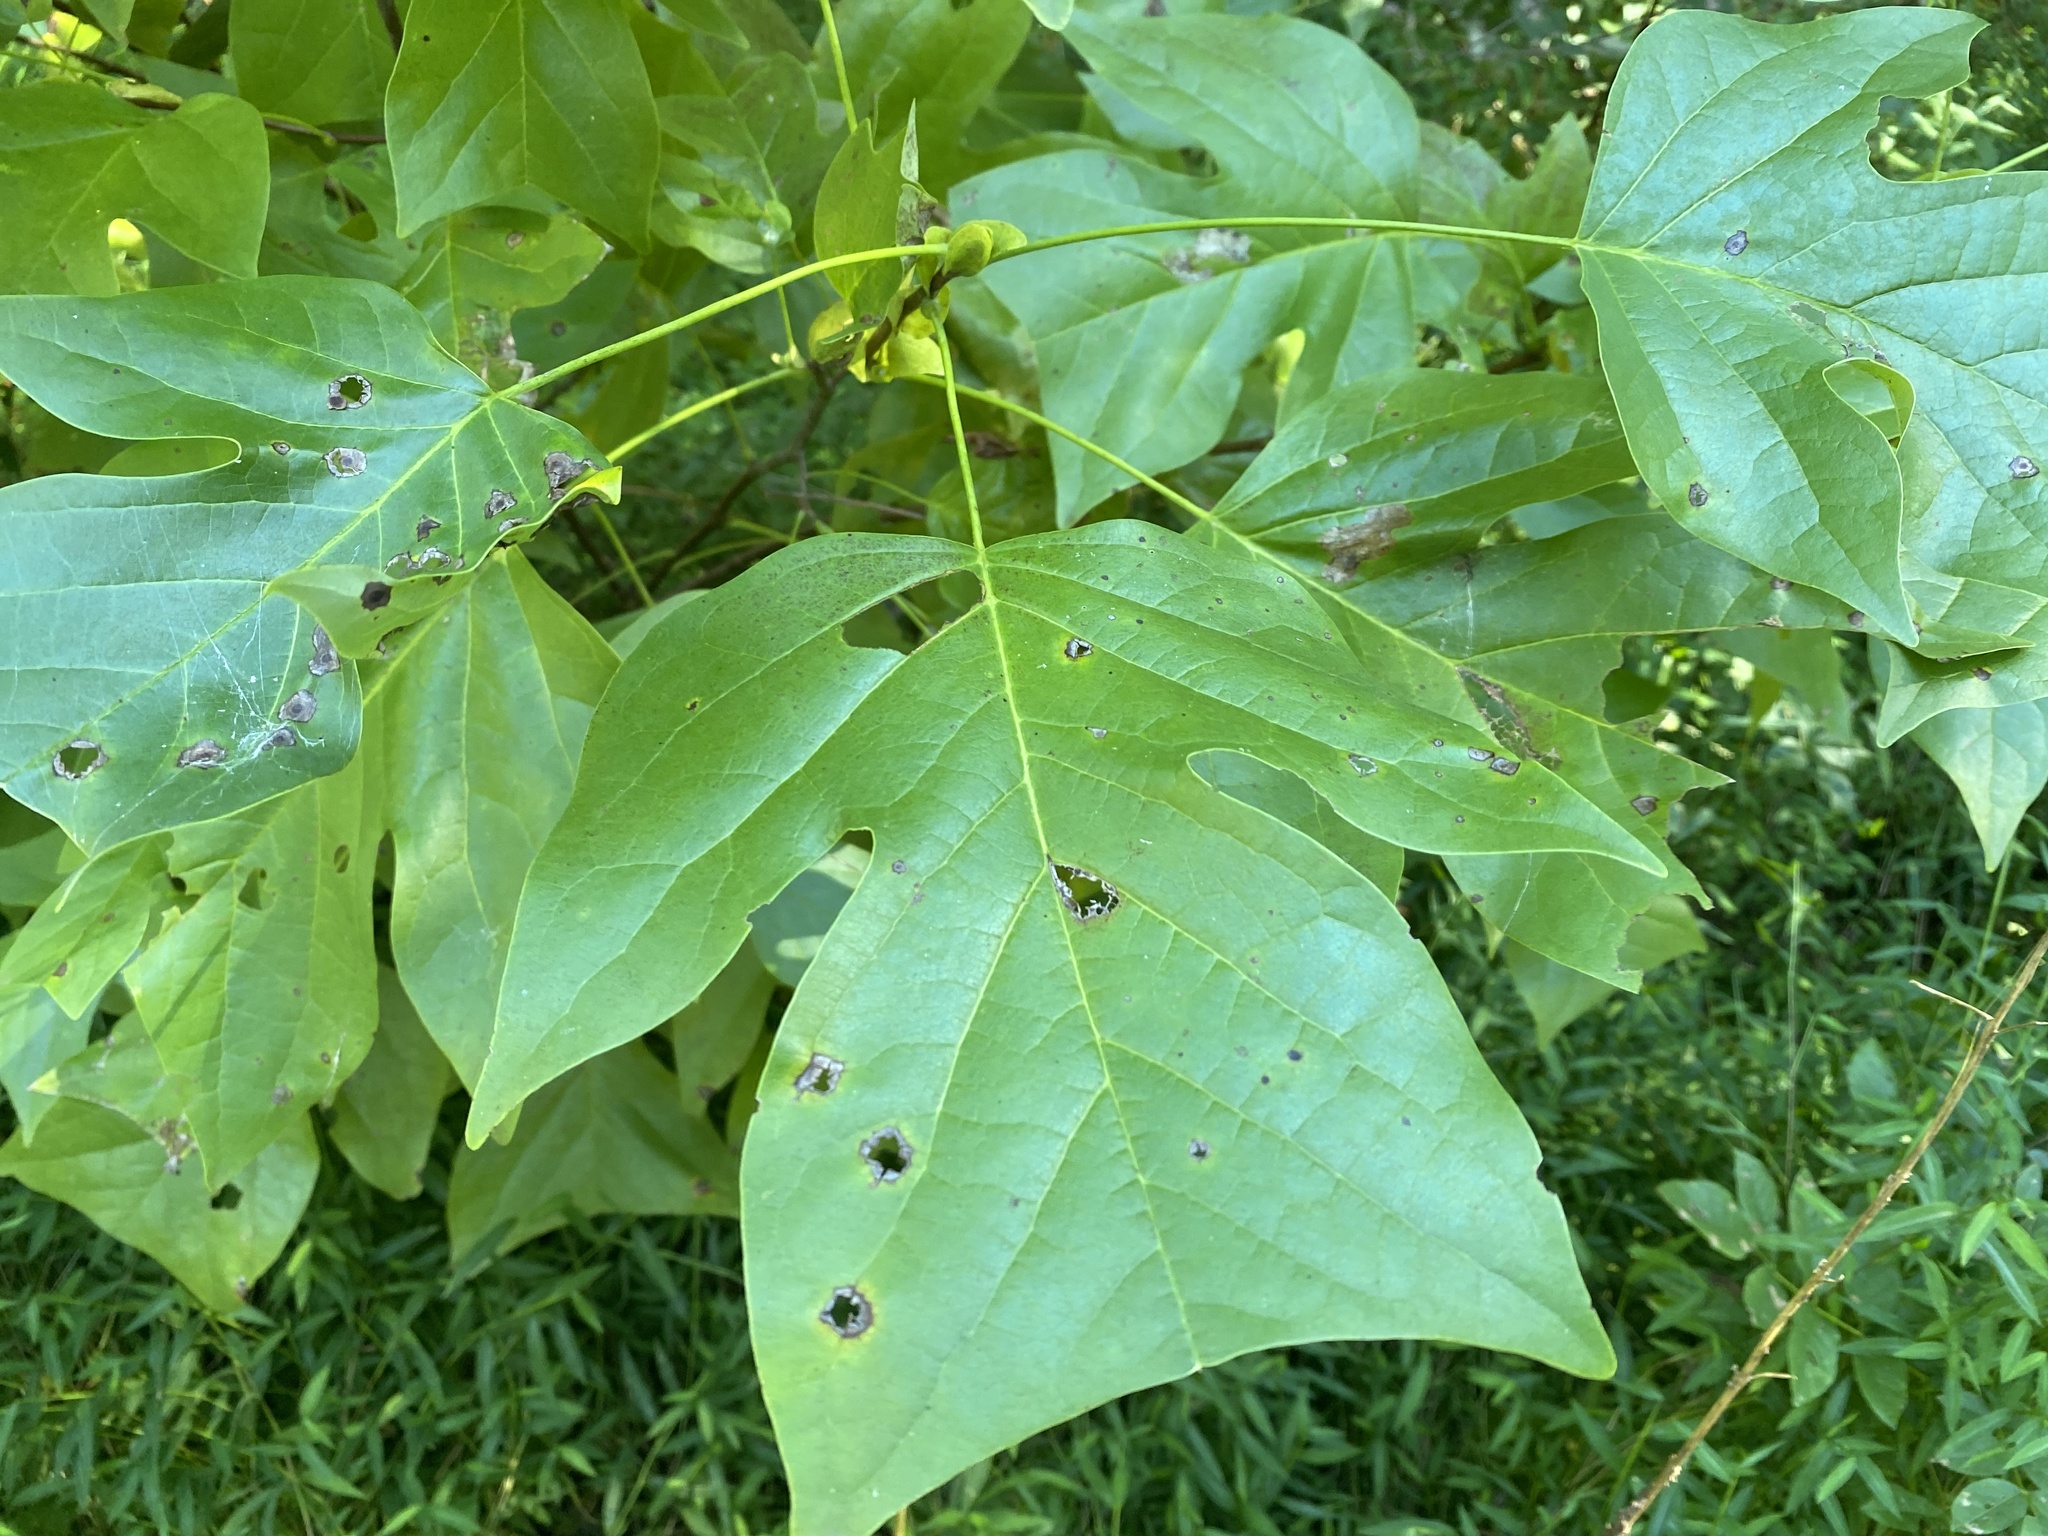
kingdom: Plantae
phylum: Tracheophyta
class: Magnoliopsida
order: Magnoliales
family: Magnoliaceae
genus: Liriodendron
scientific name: Liriodendron tulipifera
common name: Tulip tree
